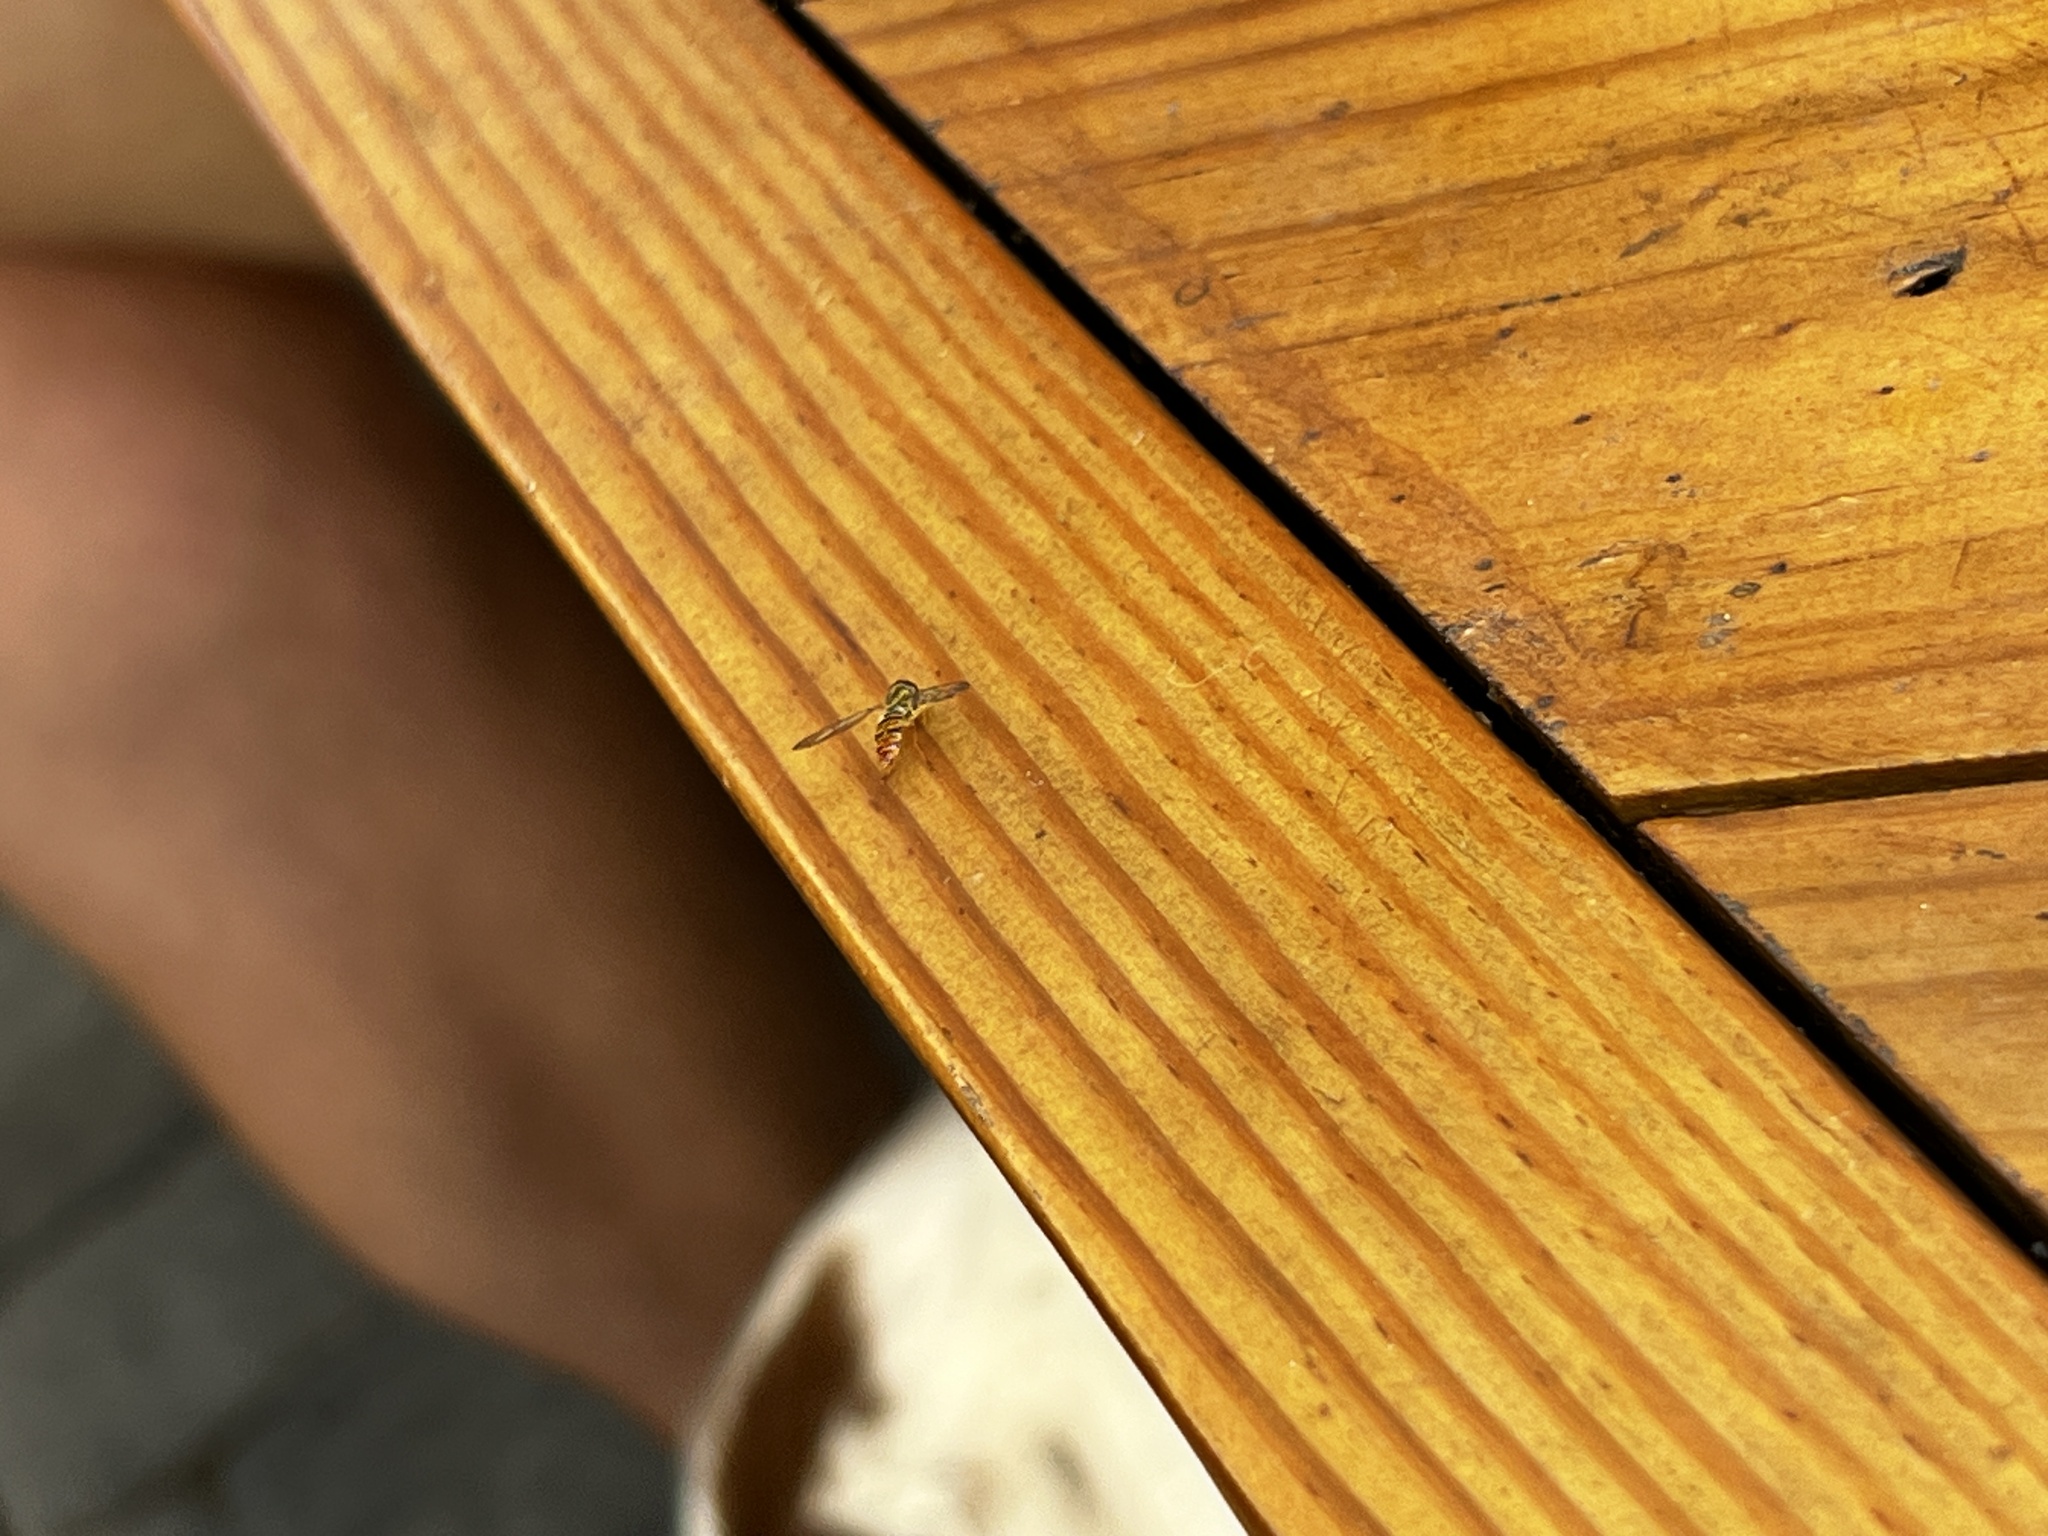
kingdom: Animalia
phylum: Arthropoda
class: Insecta
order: Diptera
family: Syrphidae
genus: Toxomerus
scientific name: Toxomerus politus
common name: Maize calligrapher
